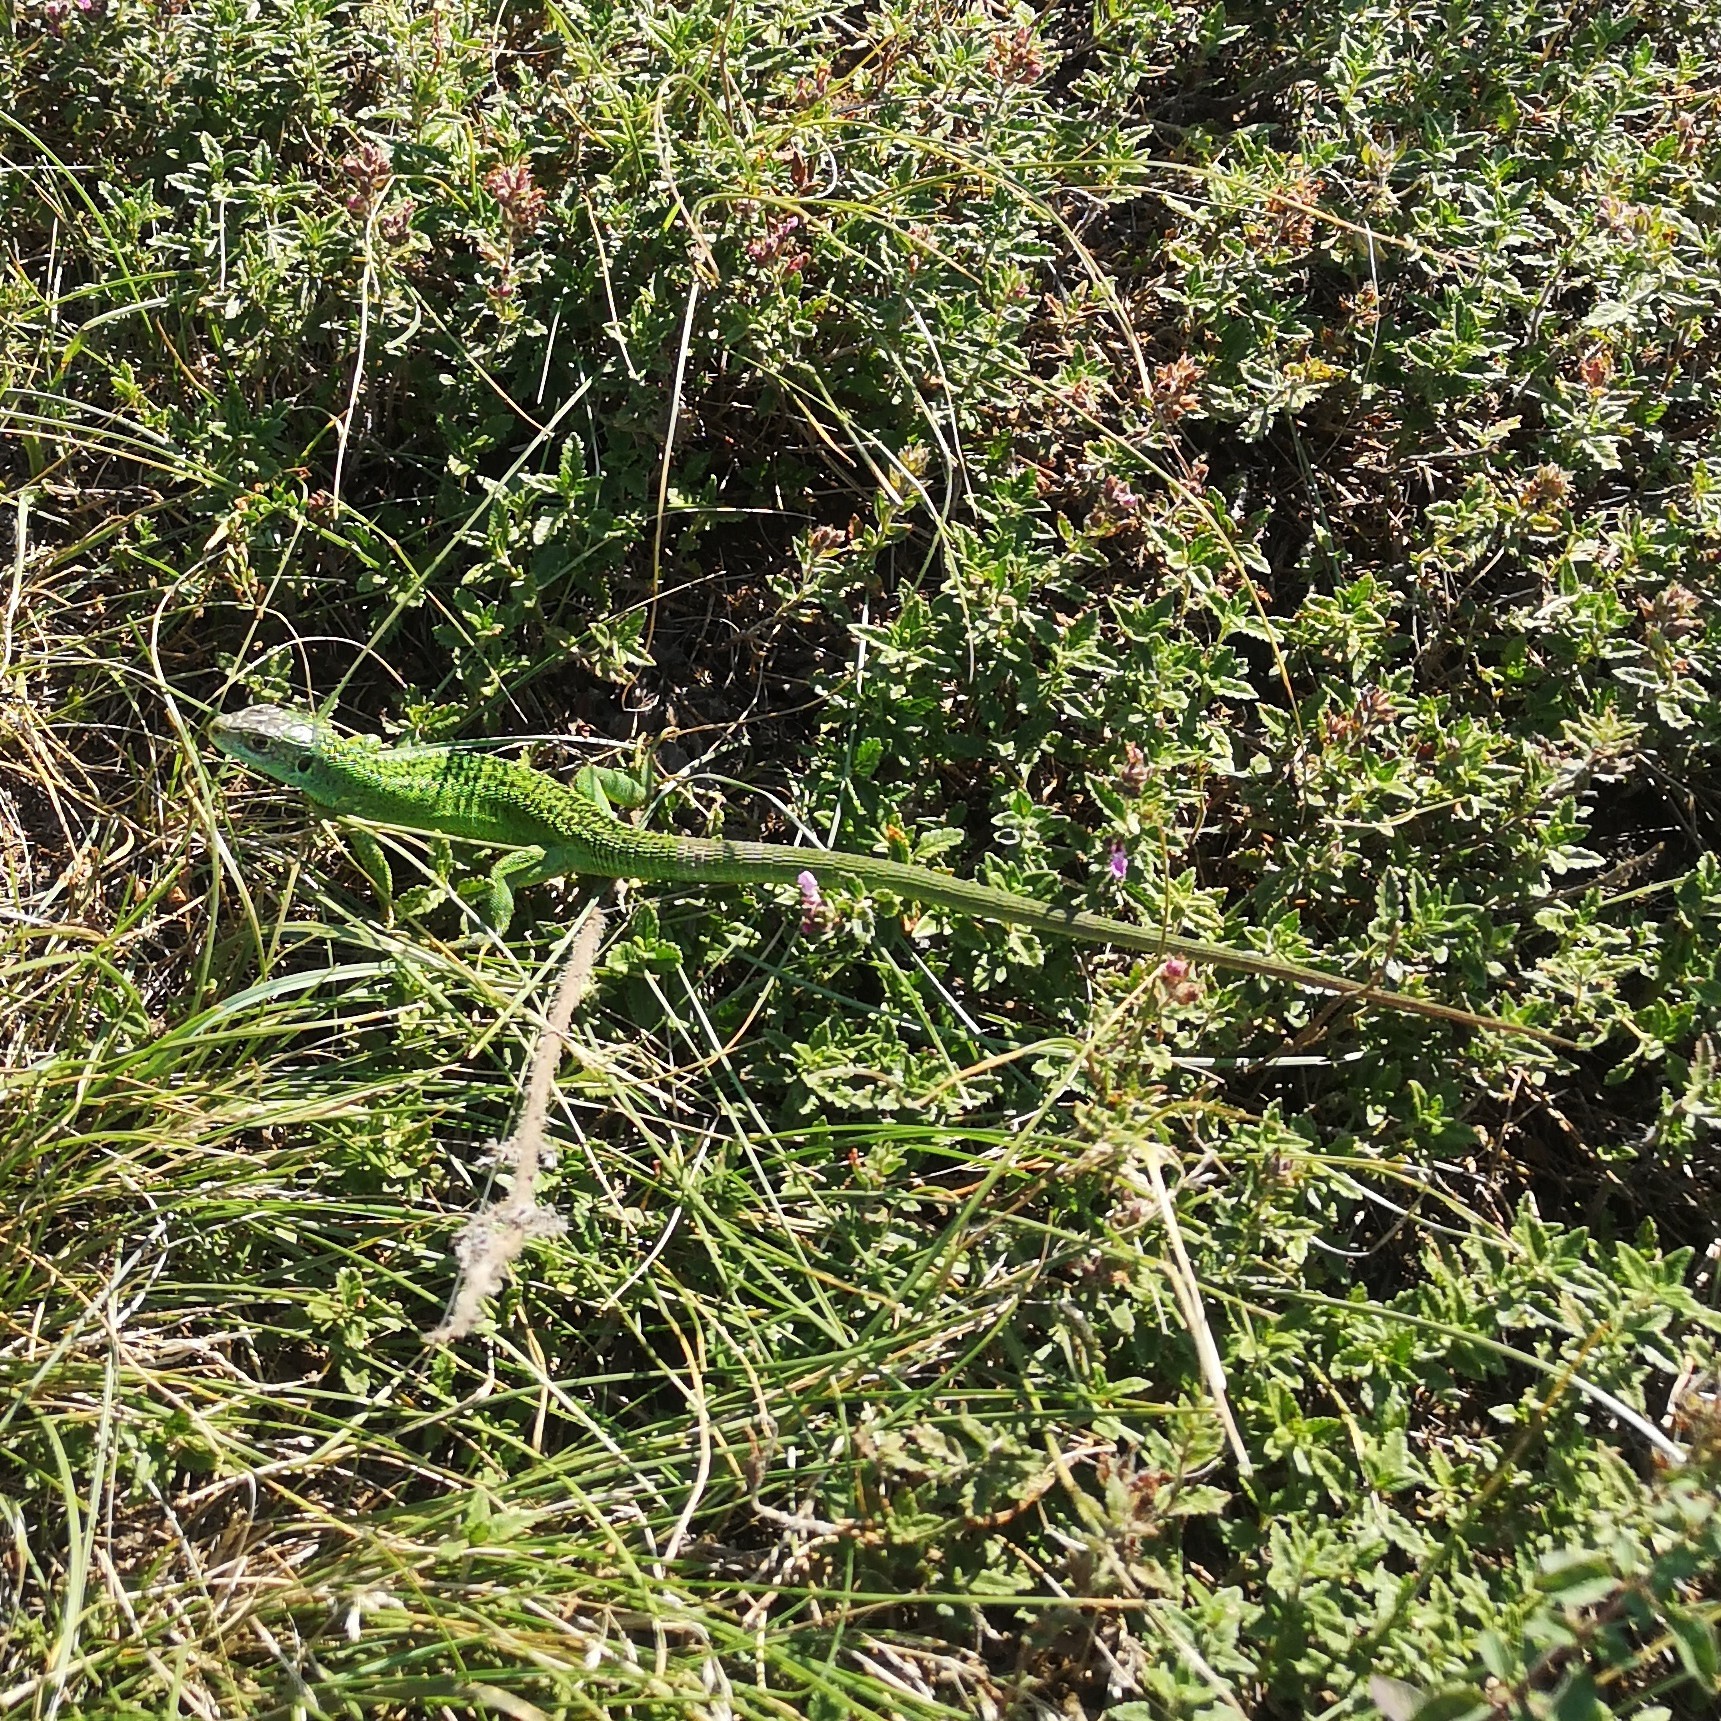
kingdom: Animalia
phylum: Chordata
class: Squamata
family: Lacertidae
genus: Lacerta
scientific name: Lacerta bilineata
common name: Western green lizard
